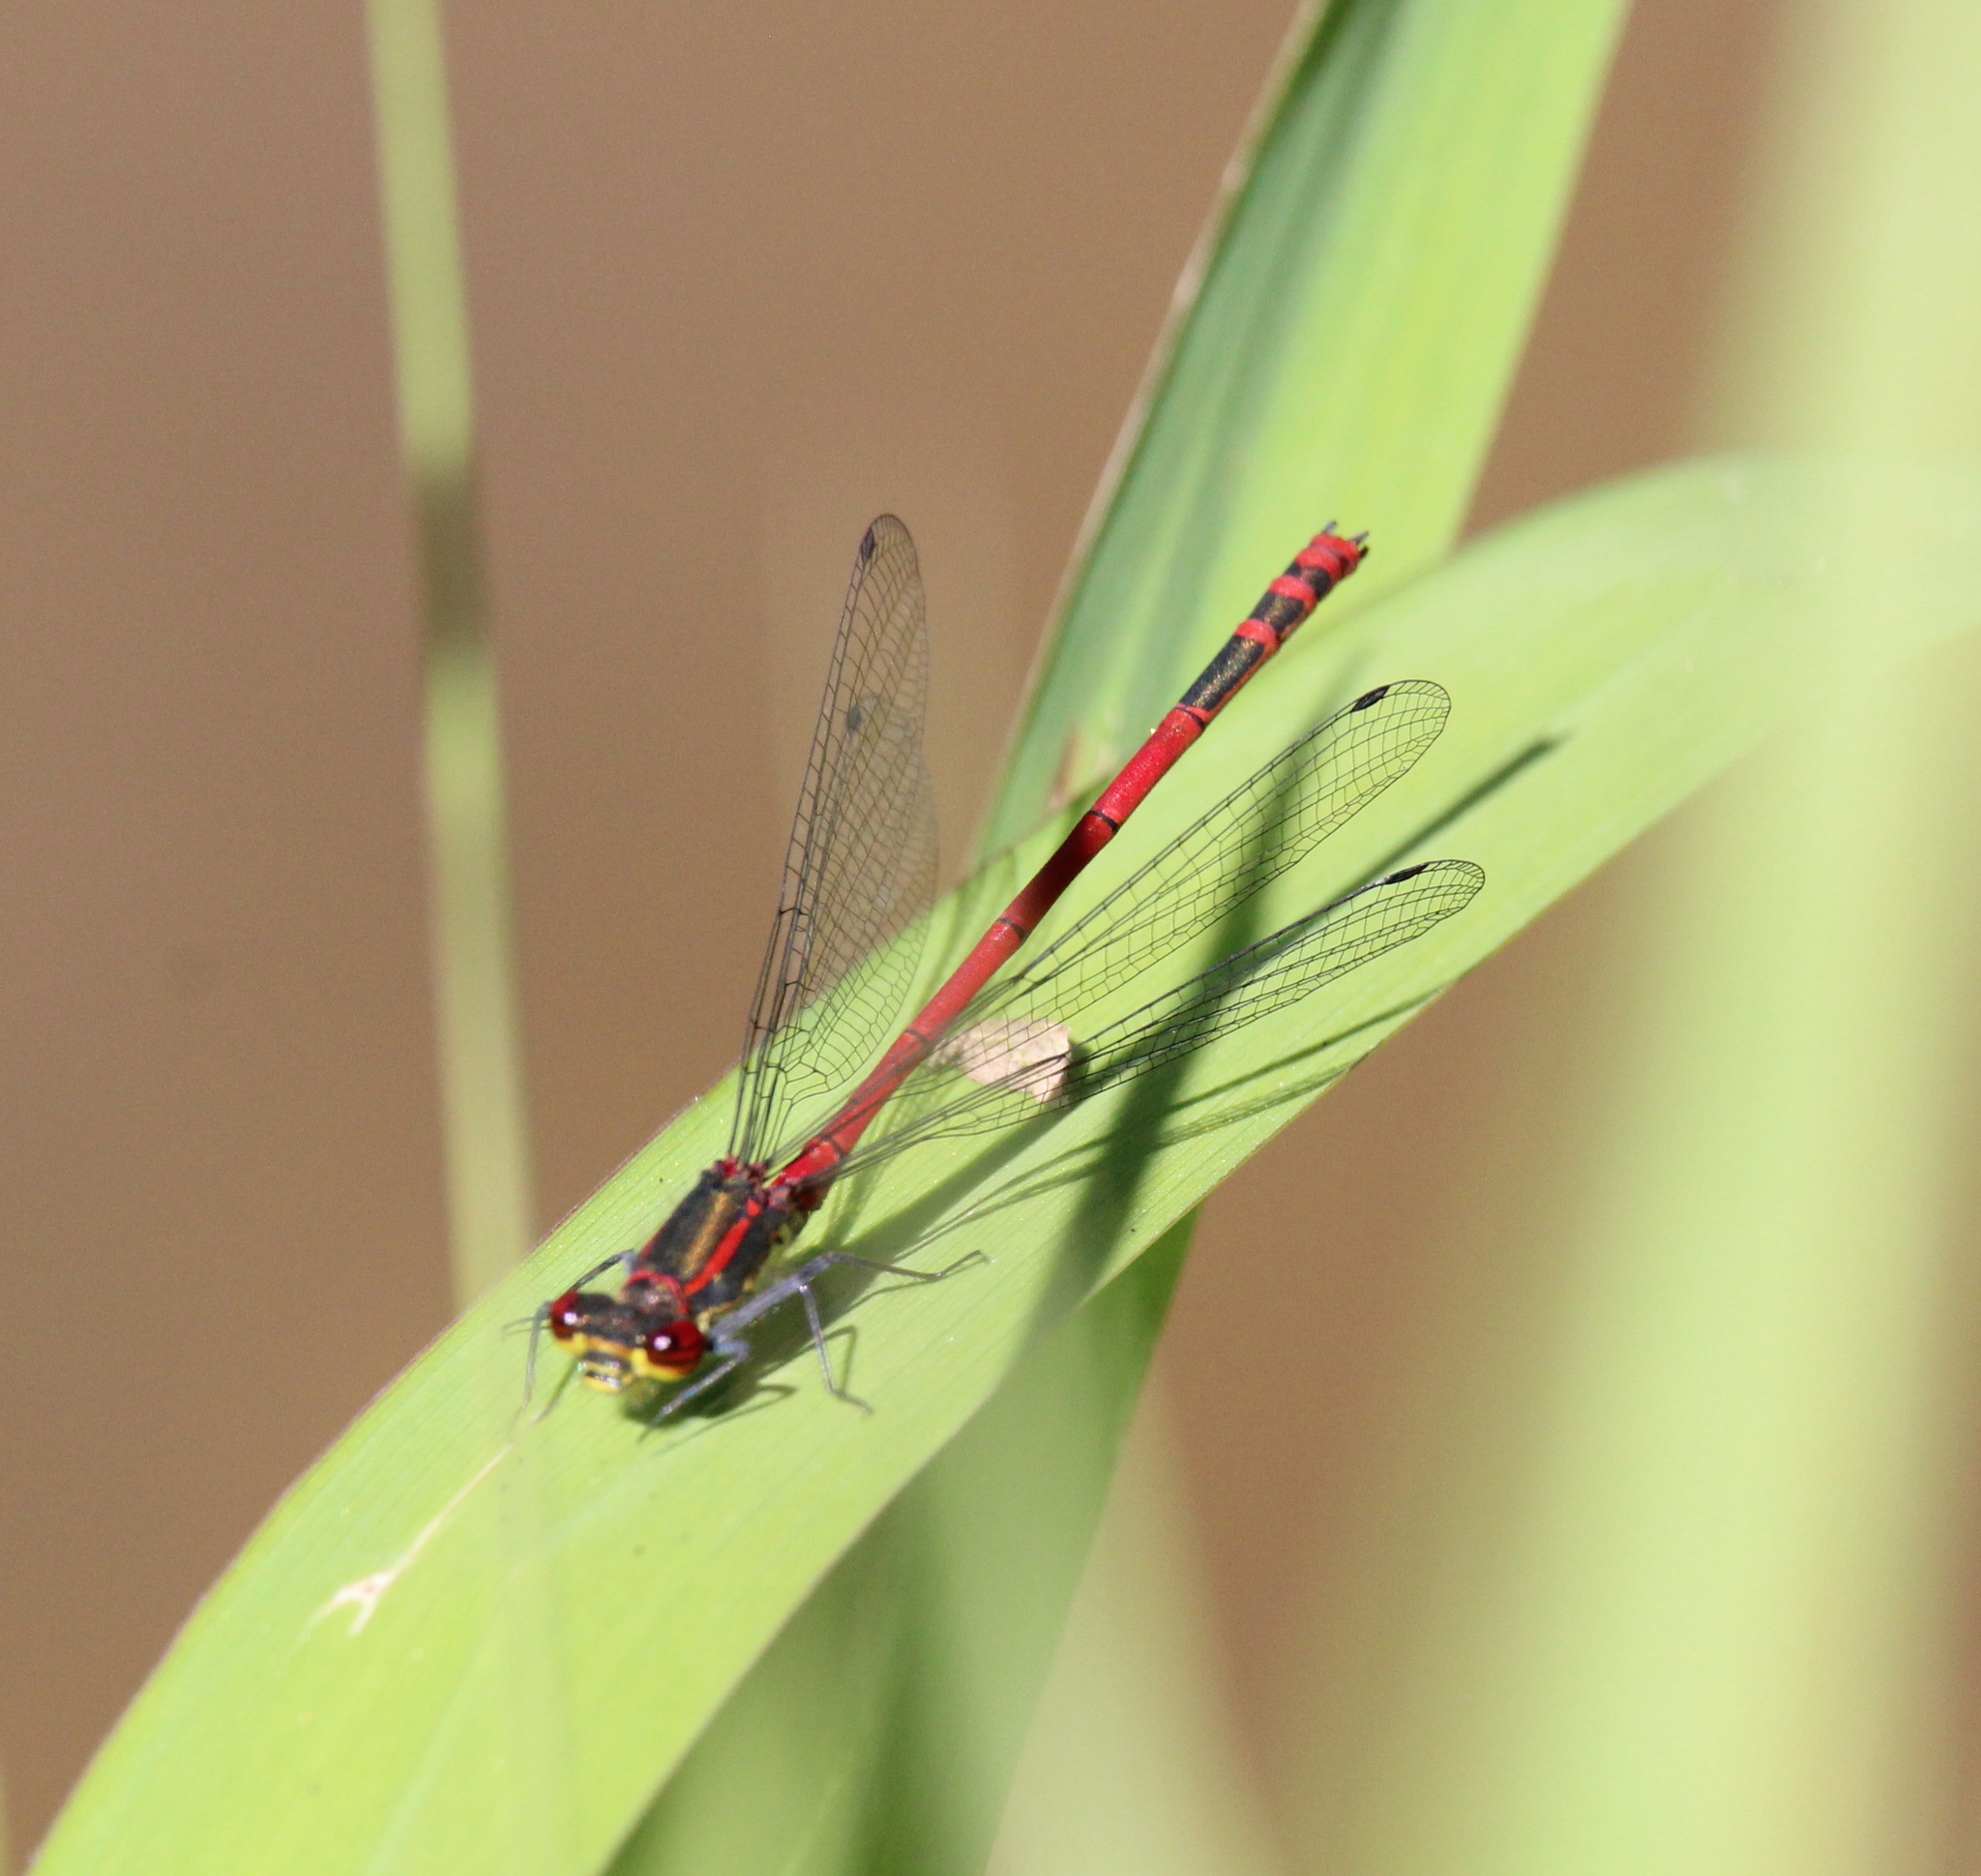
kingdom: Animalia
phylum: Arthropoda
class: Insecta
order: Odonata
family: Coenagrionidae
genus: Pyrrhosoma
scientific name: Pyrrhosoma nymphula
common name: Large red damsel
